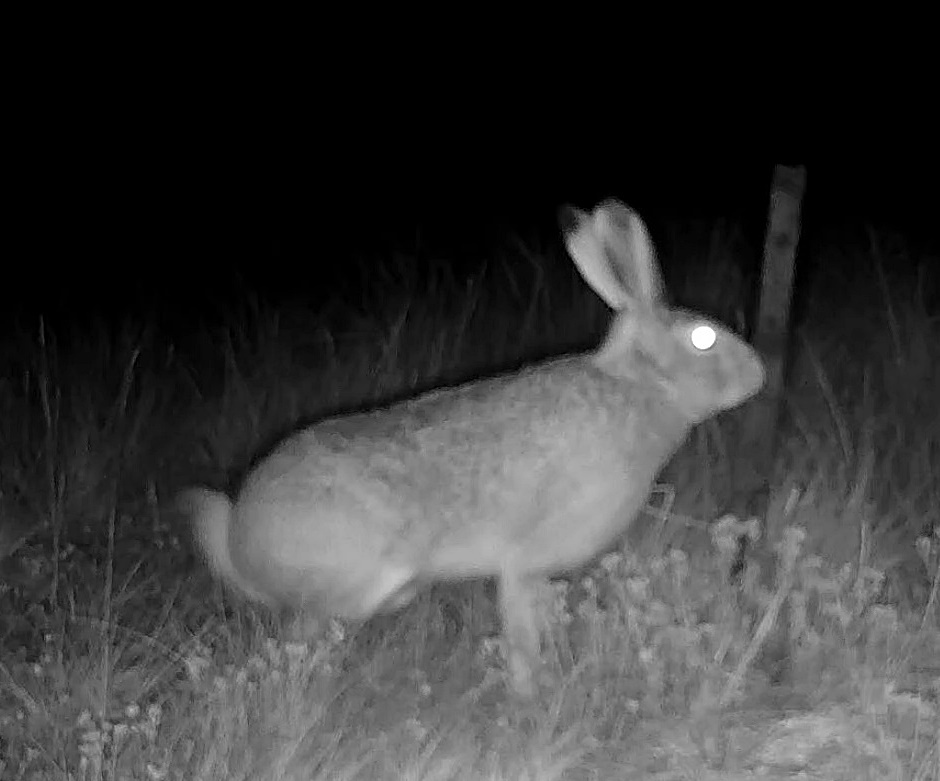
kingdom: Animalia
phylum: Chordata
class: Mammalia
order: Lagomorpha
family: Leporidae
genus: Lepus
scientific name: Lepus townsendii
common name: White-tailed jackrabbit
